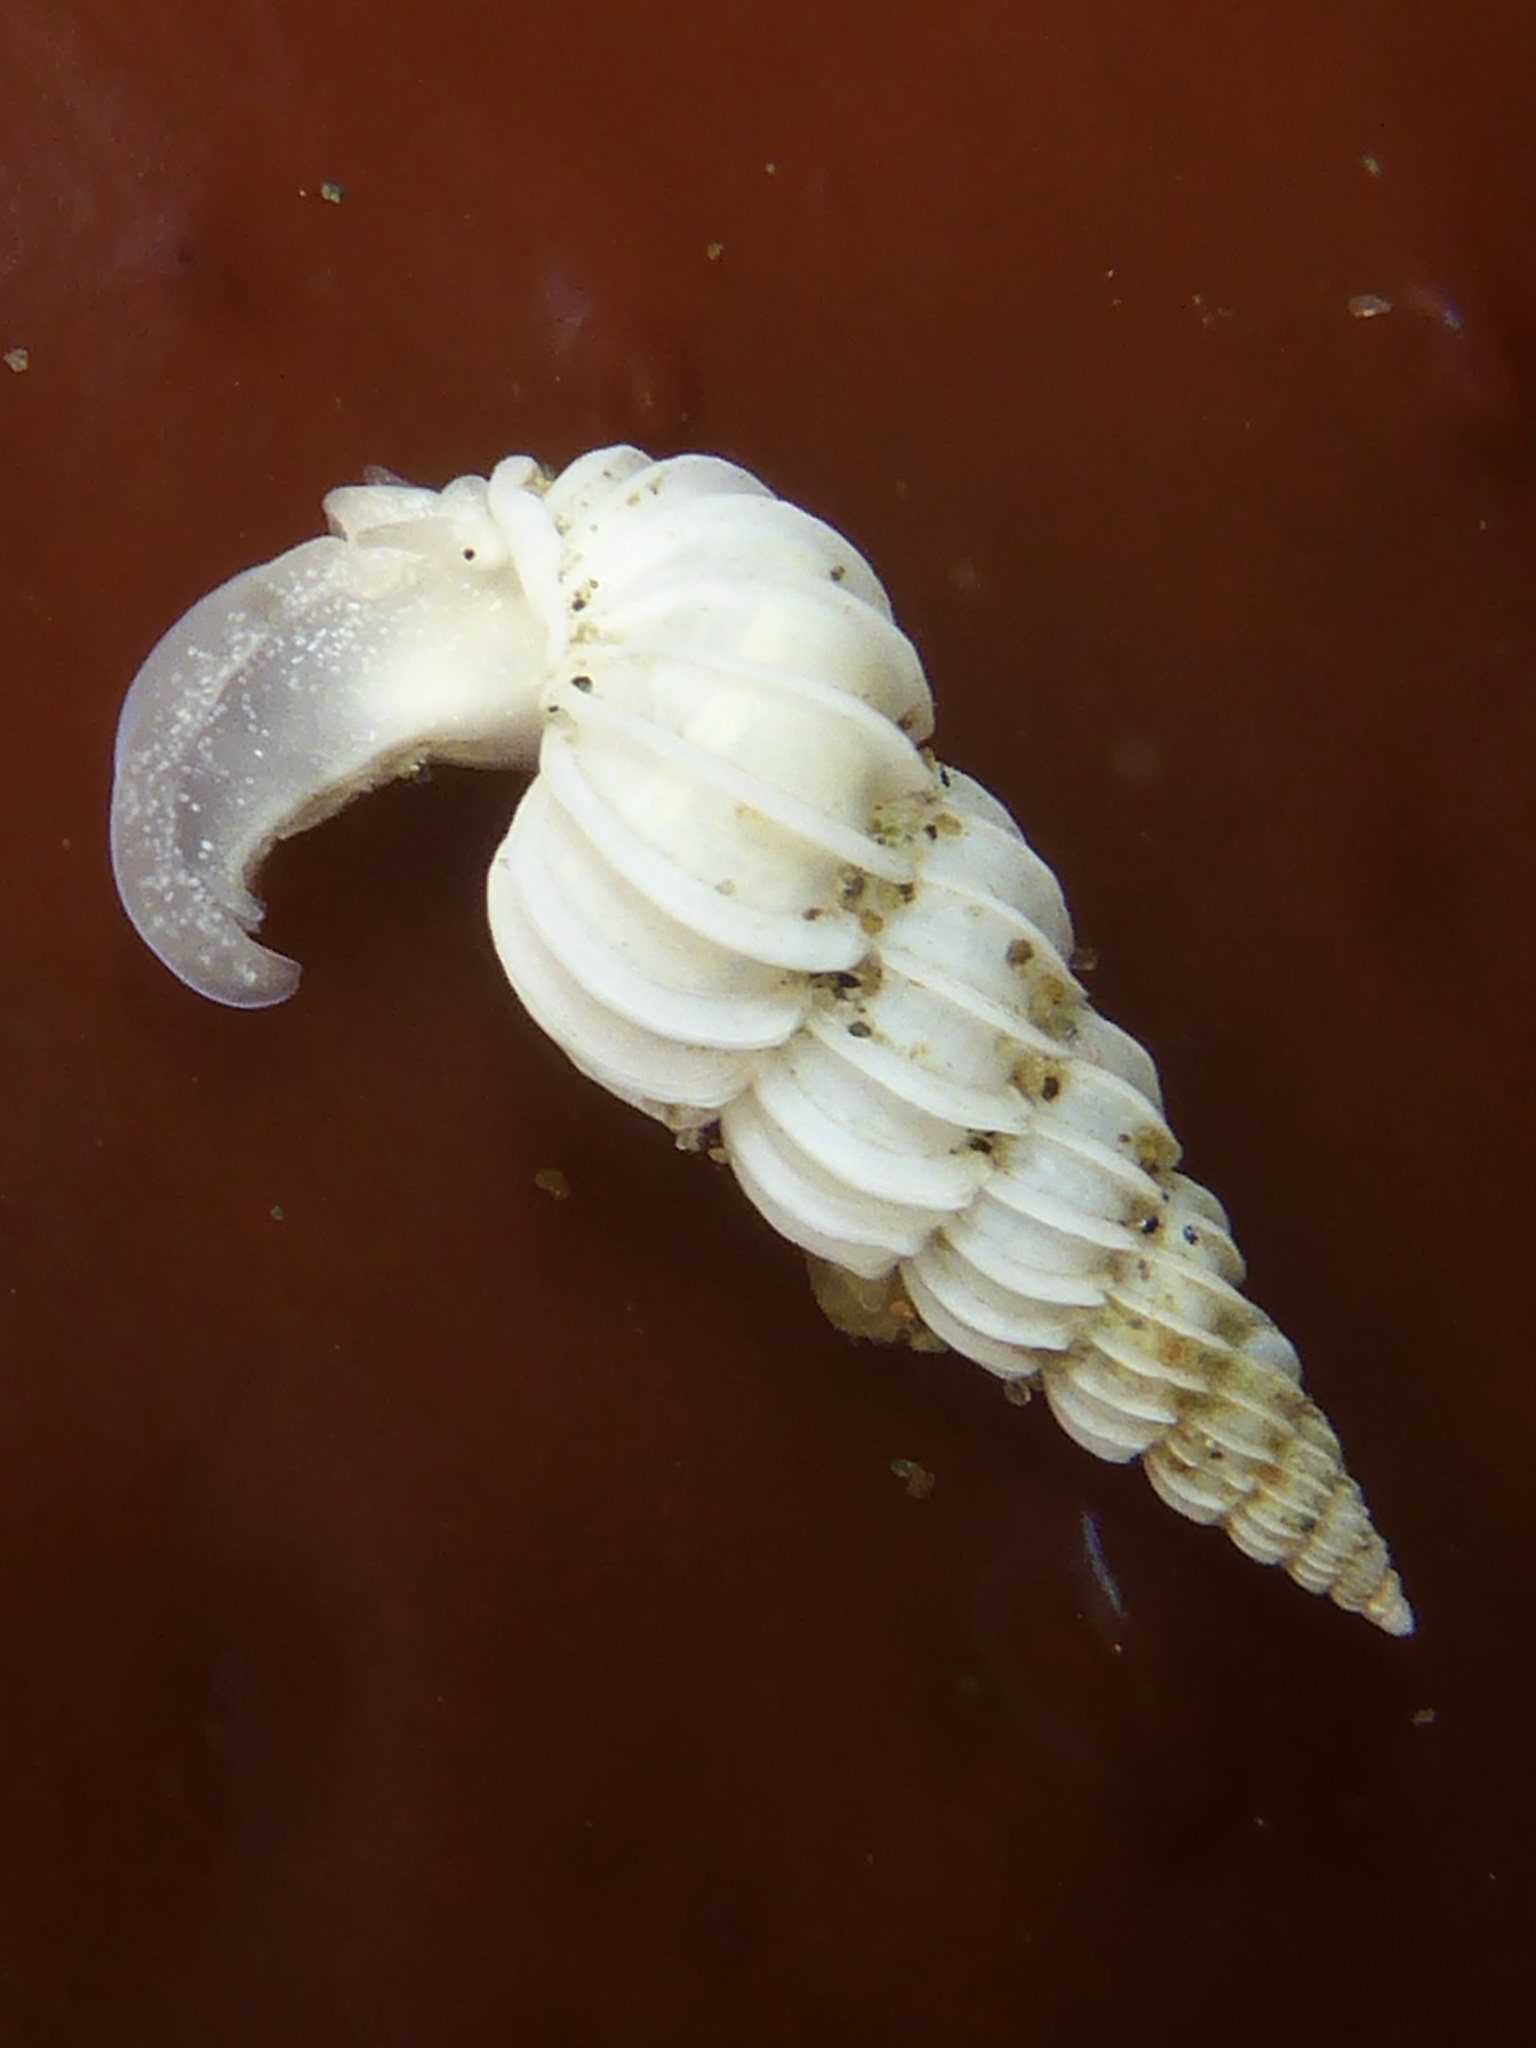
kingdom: Animalia
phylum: Mollusca
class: Gastropoda
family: Epitoniidae
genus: Epitonium
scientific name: Epitonium tinctum
